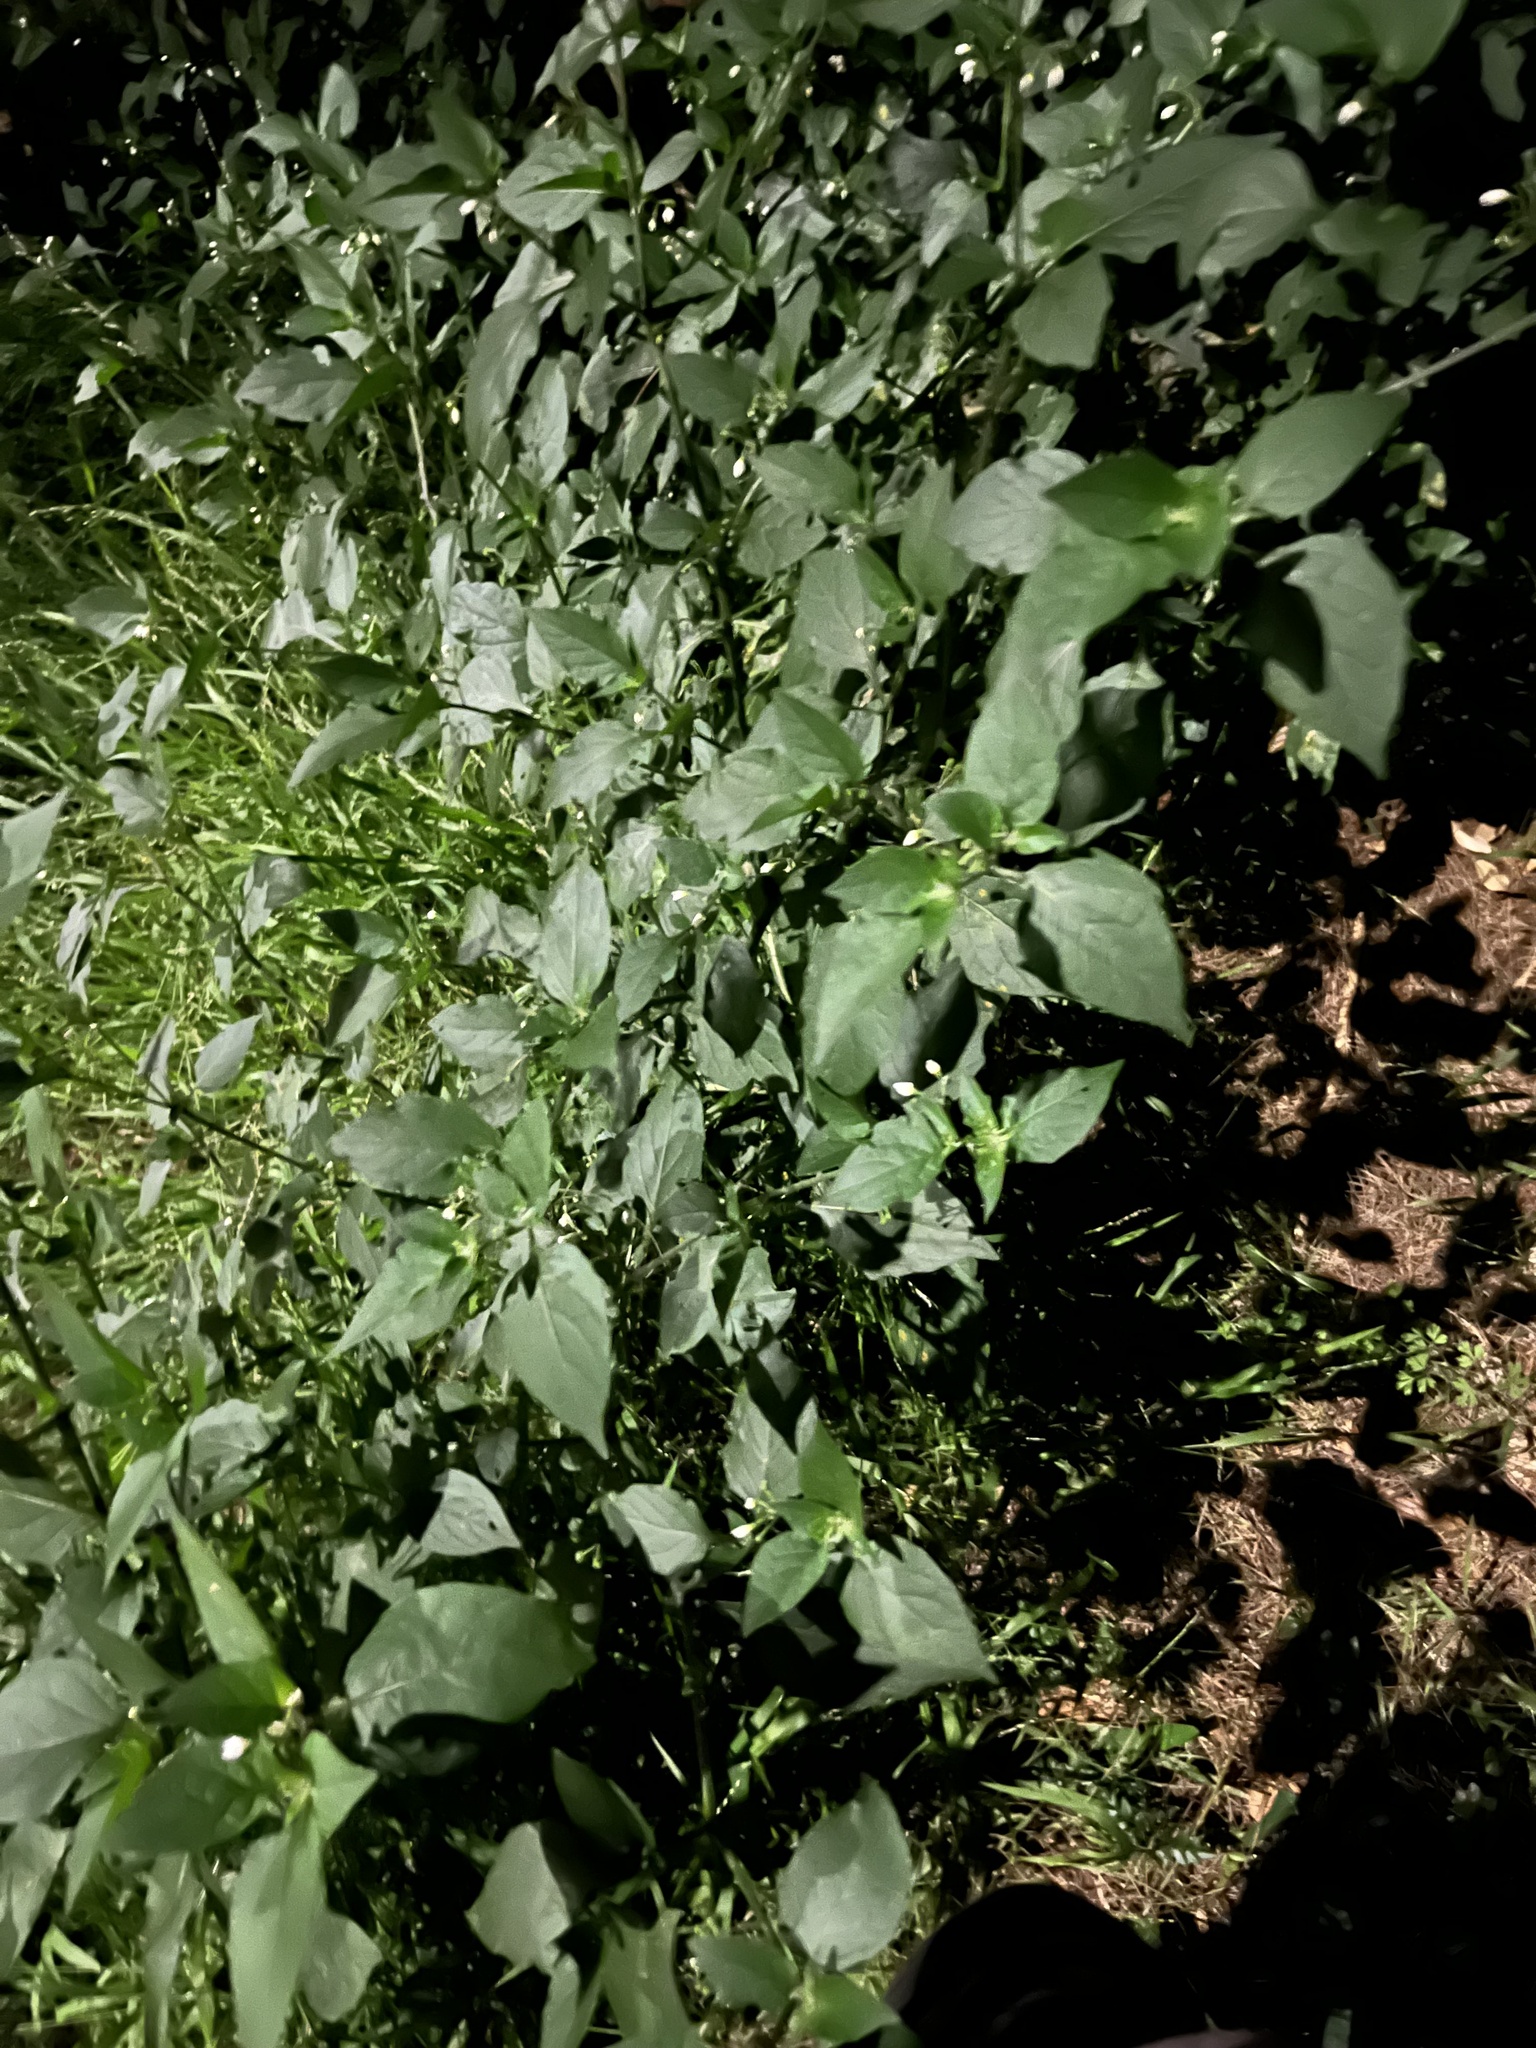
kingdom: Plantae
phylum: Tracheophyta
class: Magnoliopsida
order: Solanales
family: Solanaceae
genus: Solanum
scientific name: Solanum
